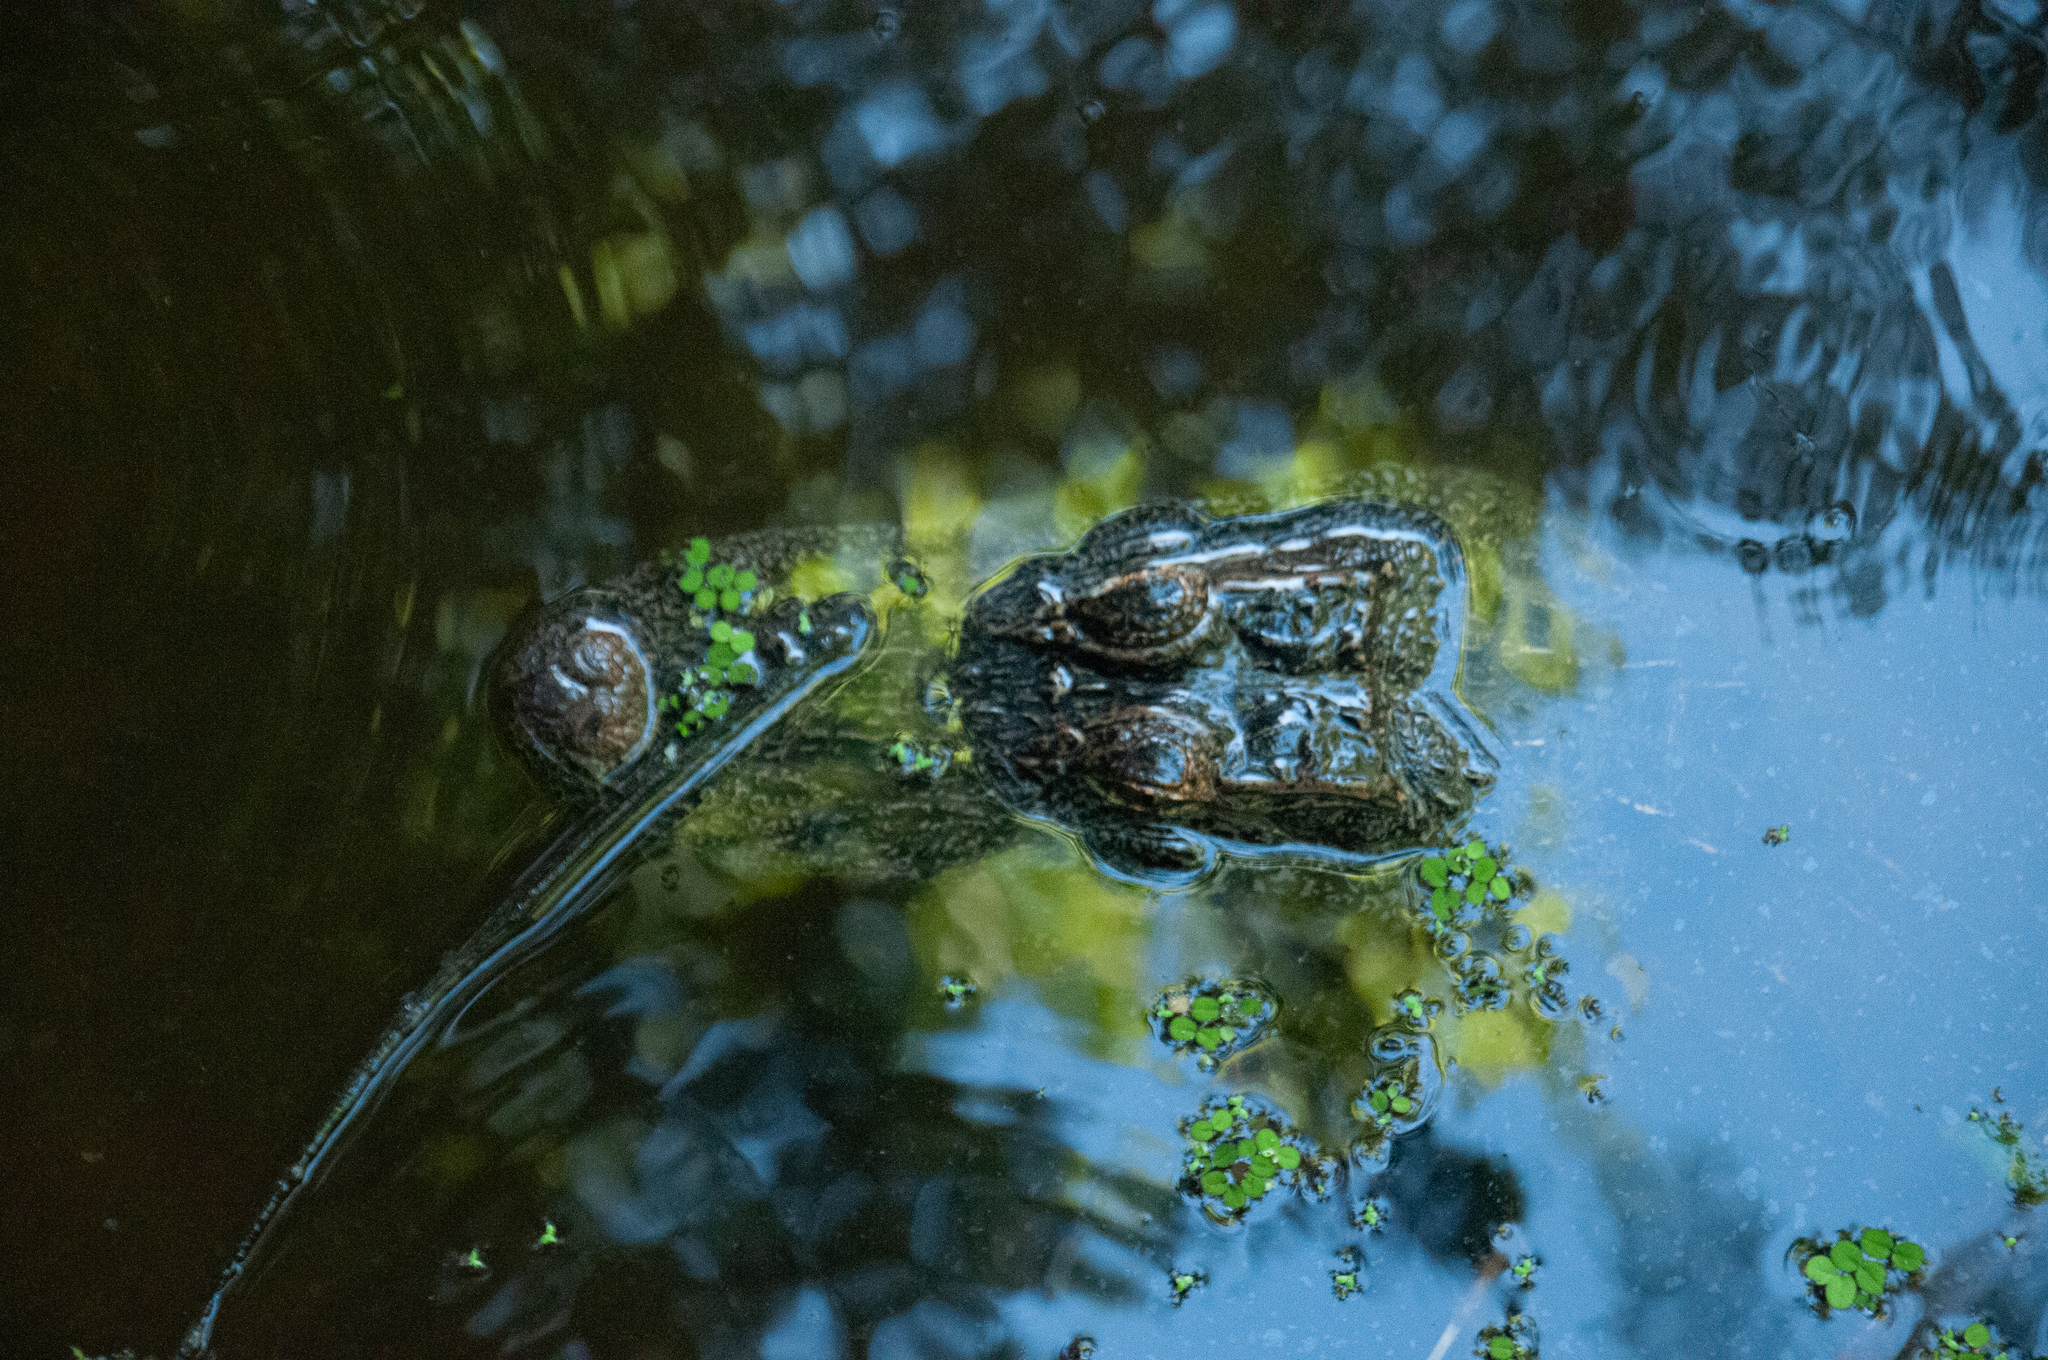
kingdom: Animalia
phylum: Chordata
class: Crocodylia
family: Alligatoridae
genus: Alligator
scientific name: Alligator mississippiensis
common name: American alligator
